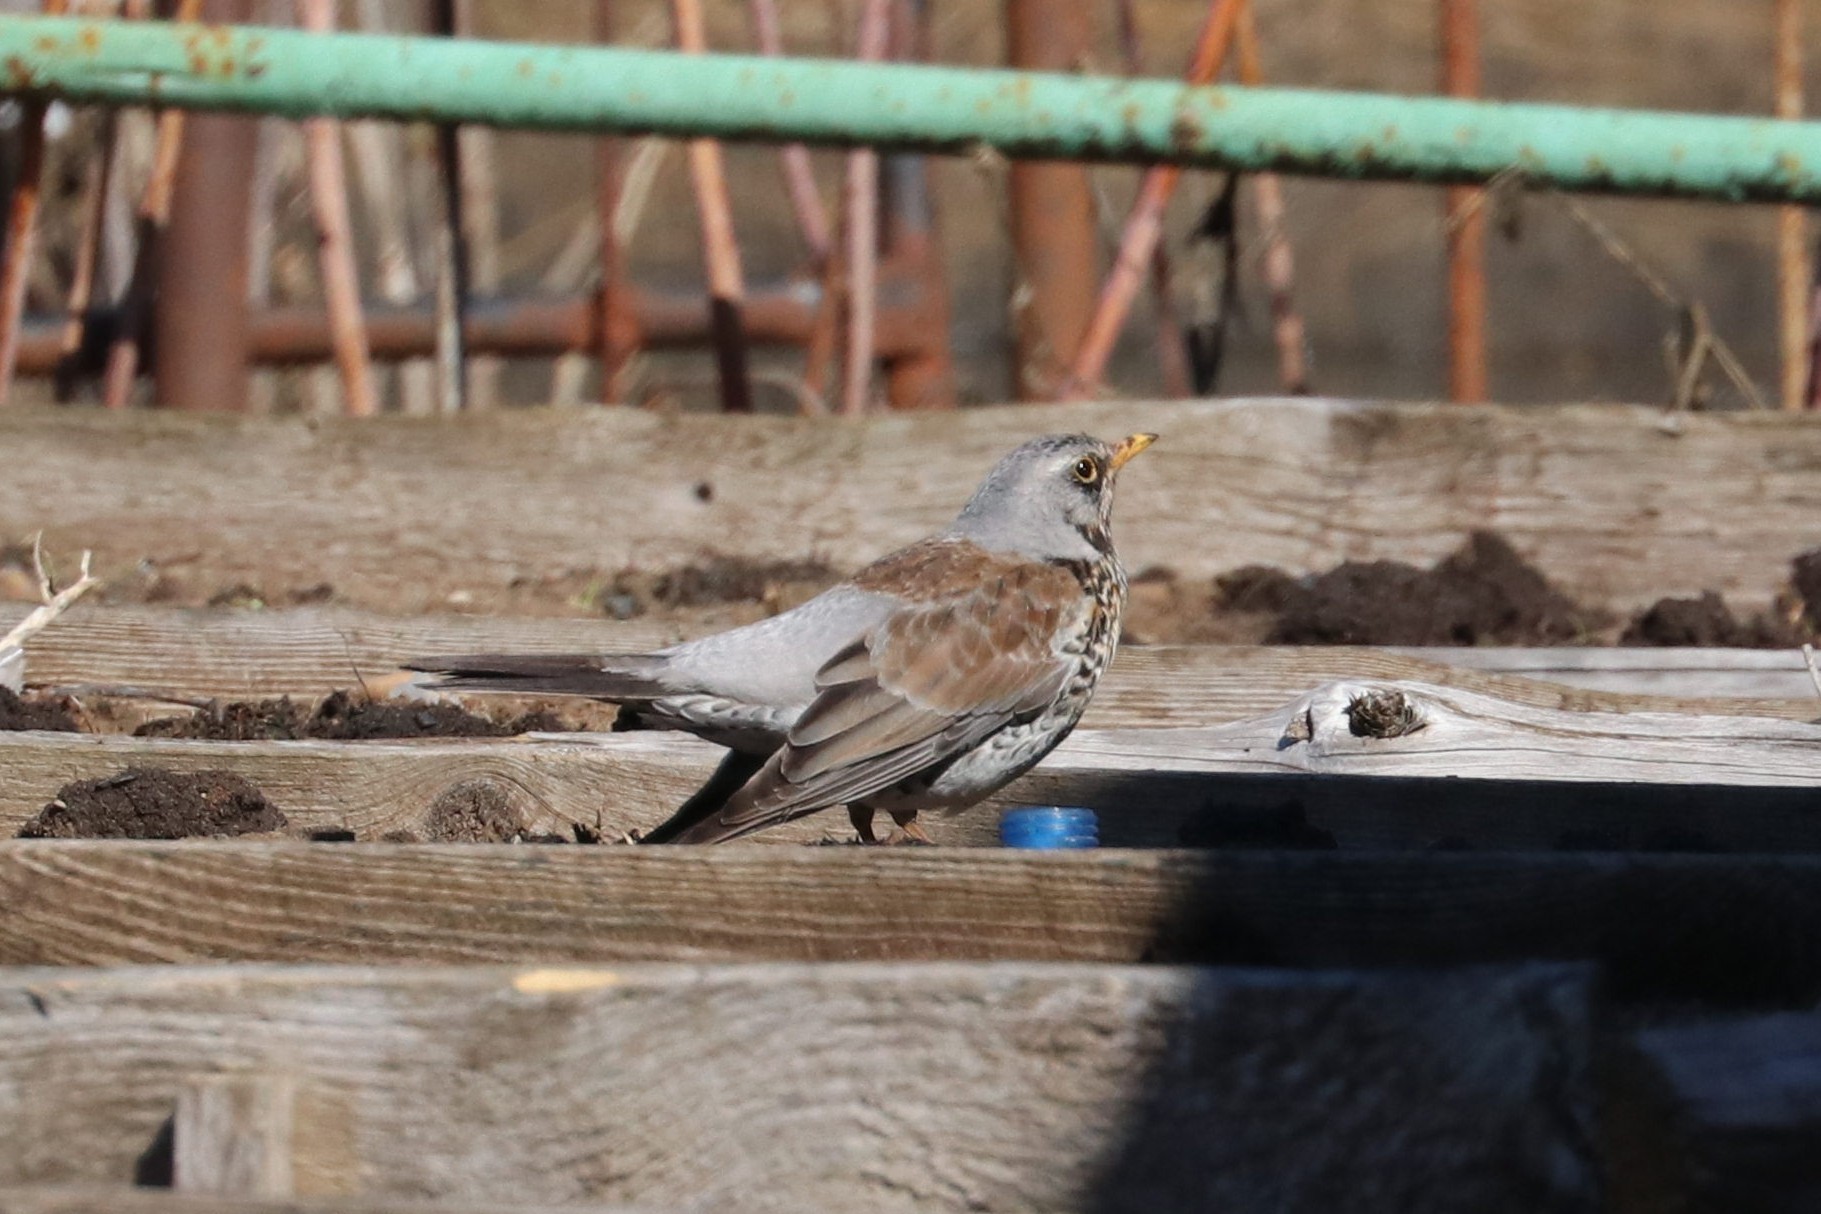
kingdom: Animalia
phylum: Chordata
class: Aves
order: Passeriformes
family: Turdidae
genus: Turdus
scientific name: Turdus pilaris
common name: Fieldfare
